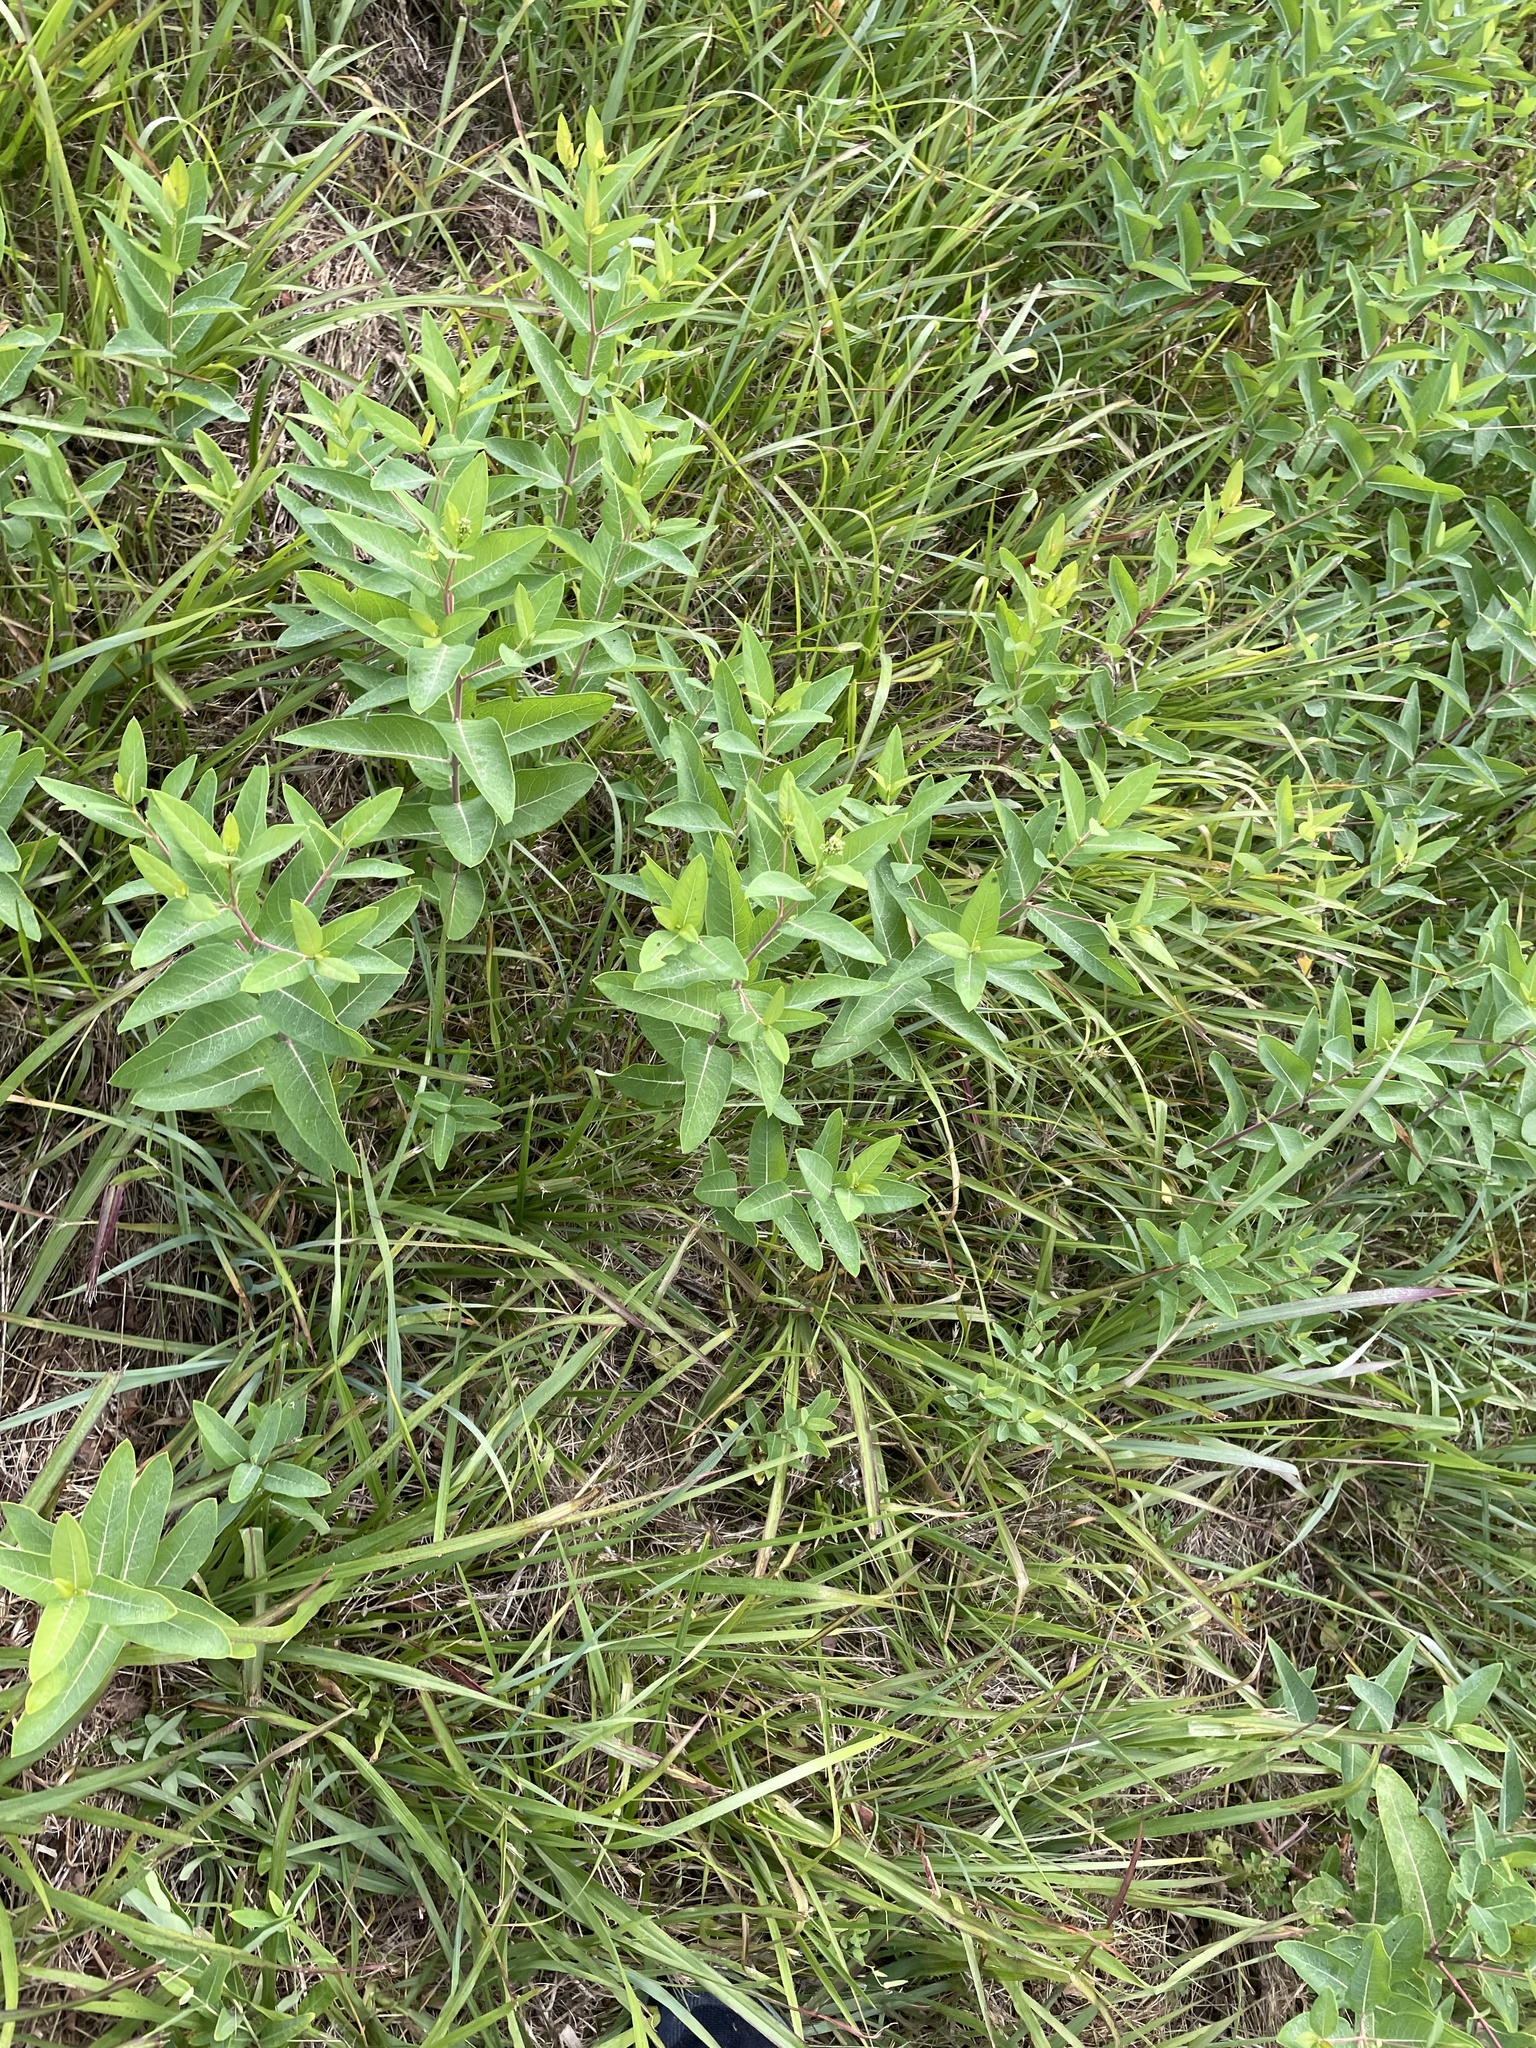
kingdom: Plantae
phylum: Tracheophyta
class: Magnoliopsida
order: Gentianales
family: Apocynaceae
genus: Apocynum
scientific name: Apocynum cannabinum
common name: Hemp dogbane
